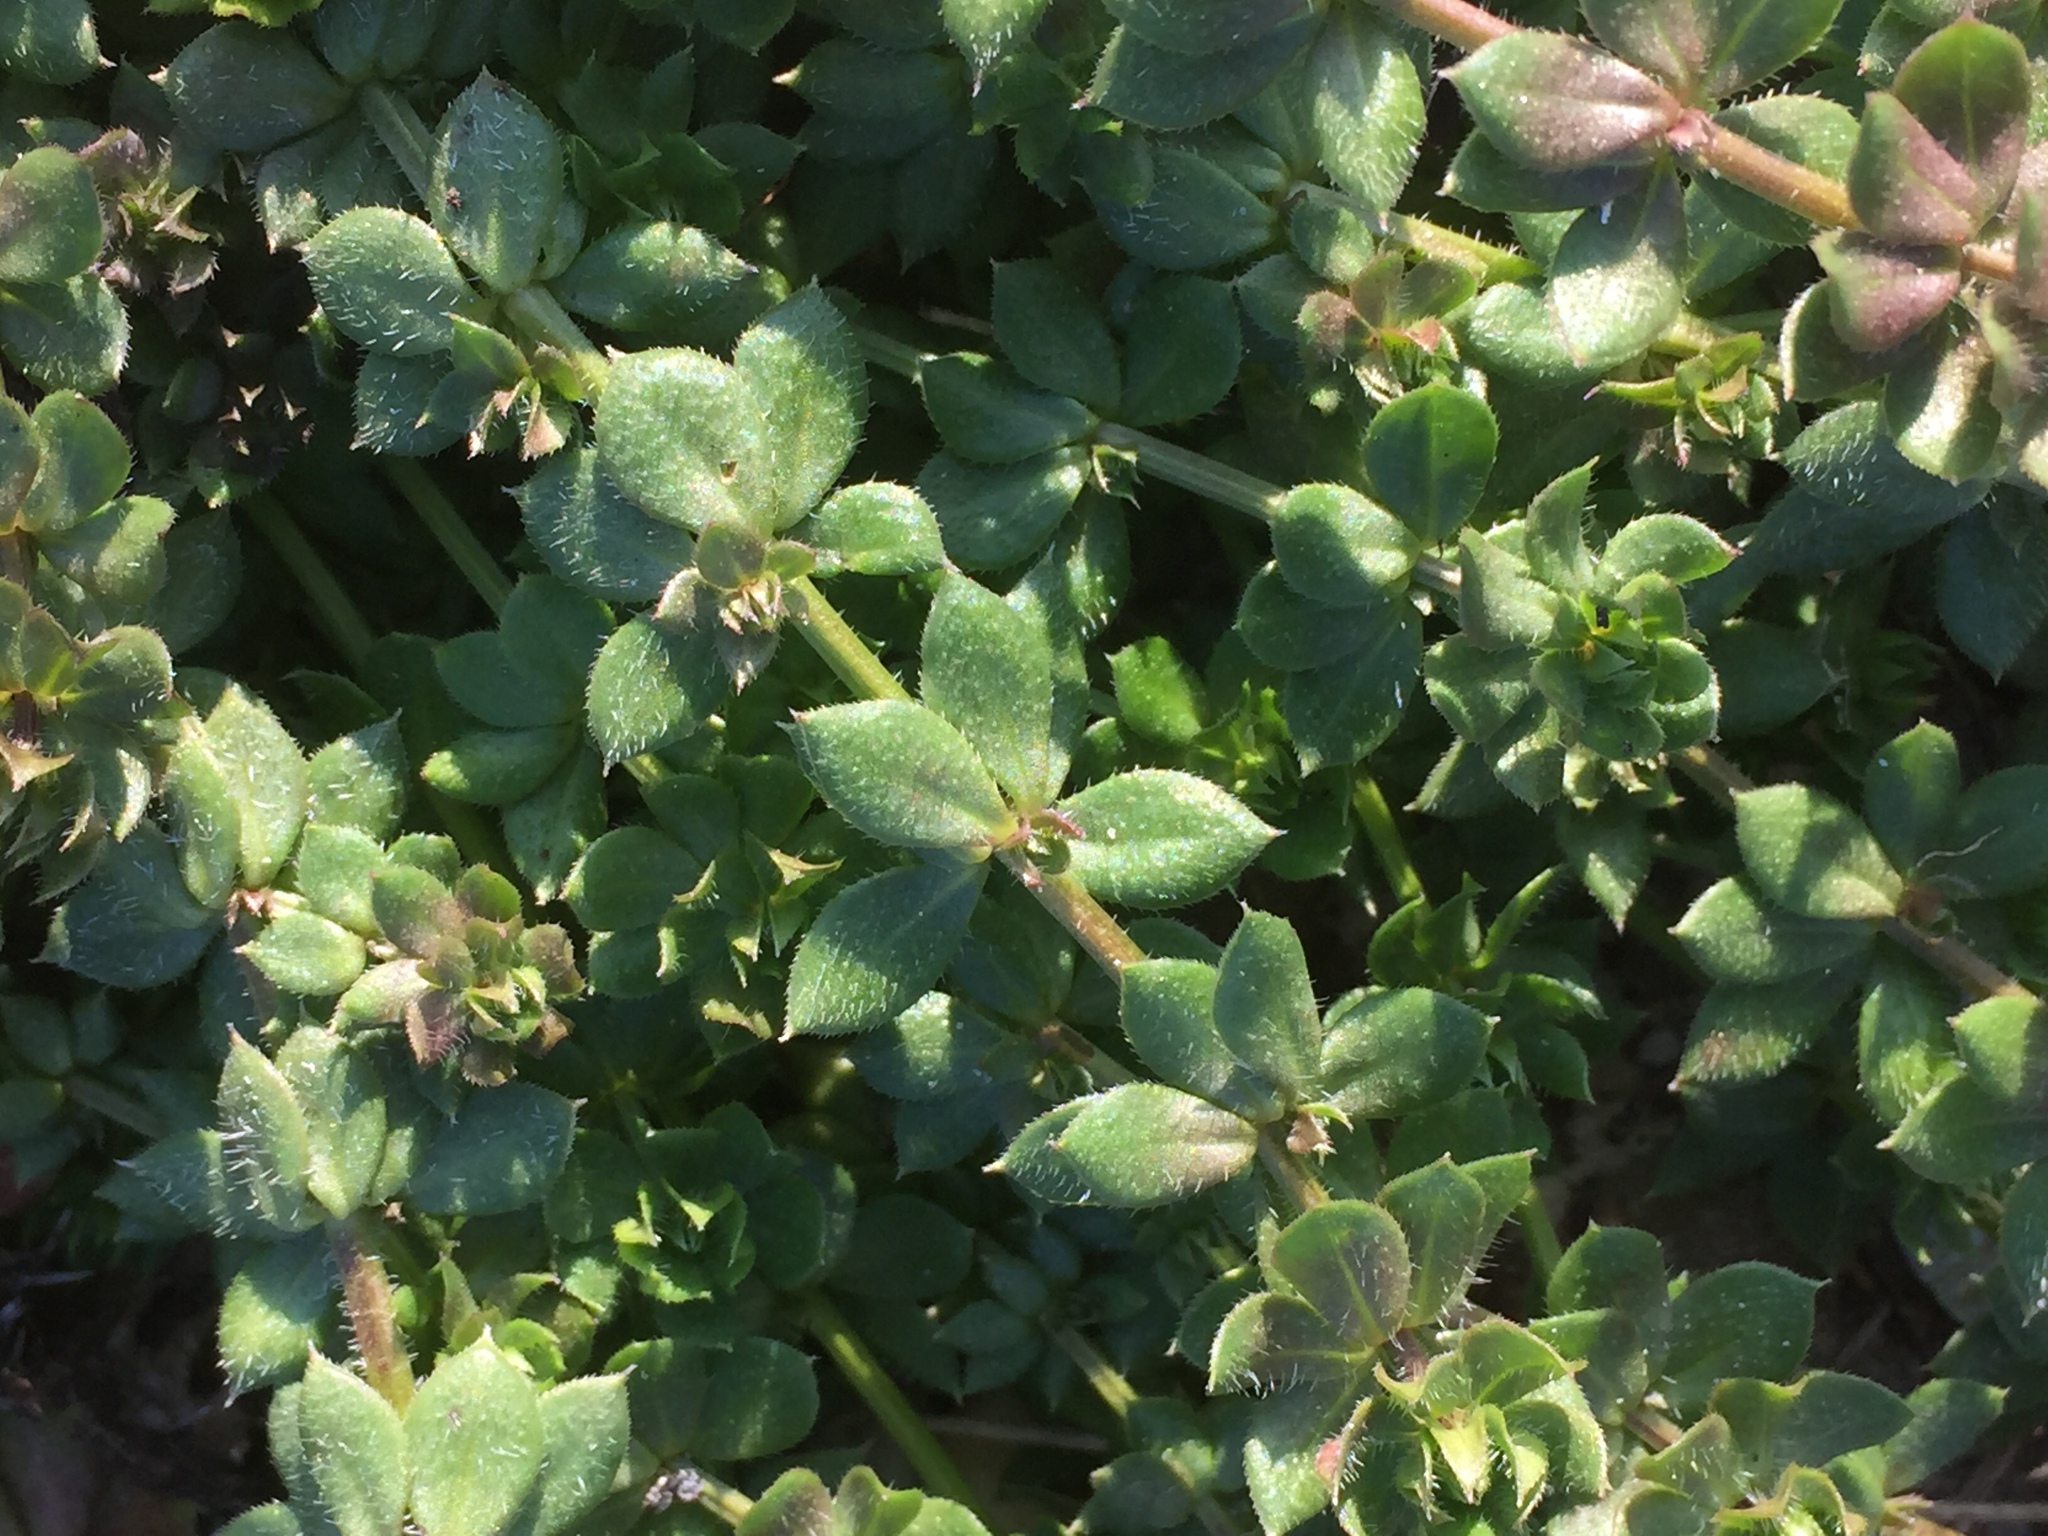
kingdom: Plantae
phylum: Tracheophyta
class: Magnoliopsida
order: Gentianales
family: Rubiaceae
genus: Sherardia
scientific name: Sherardia arvensis
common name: Field madder
